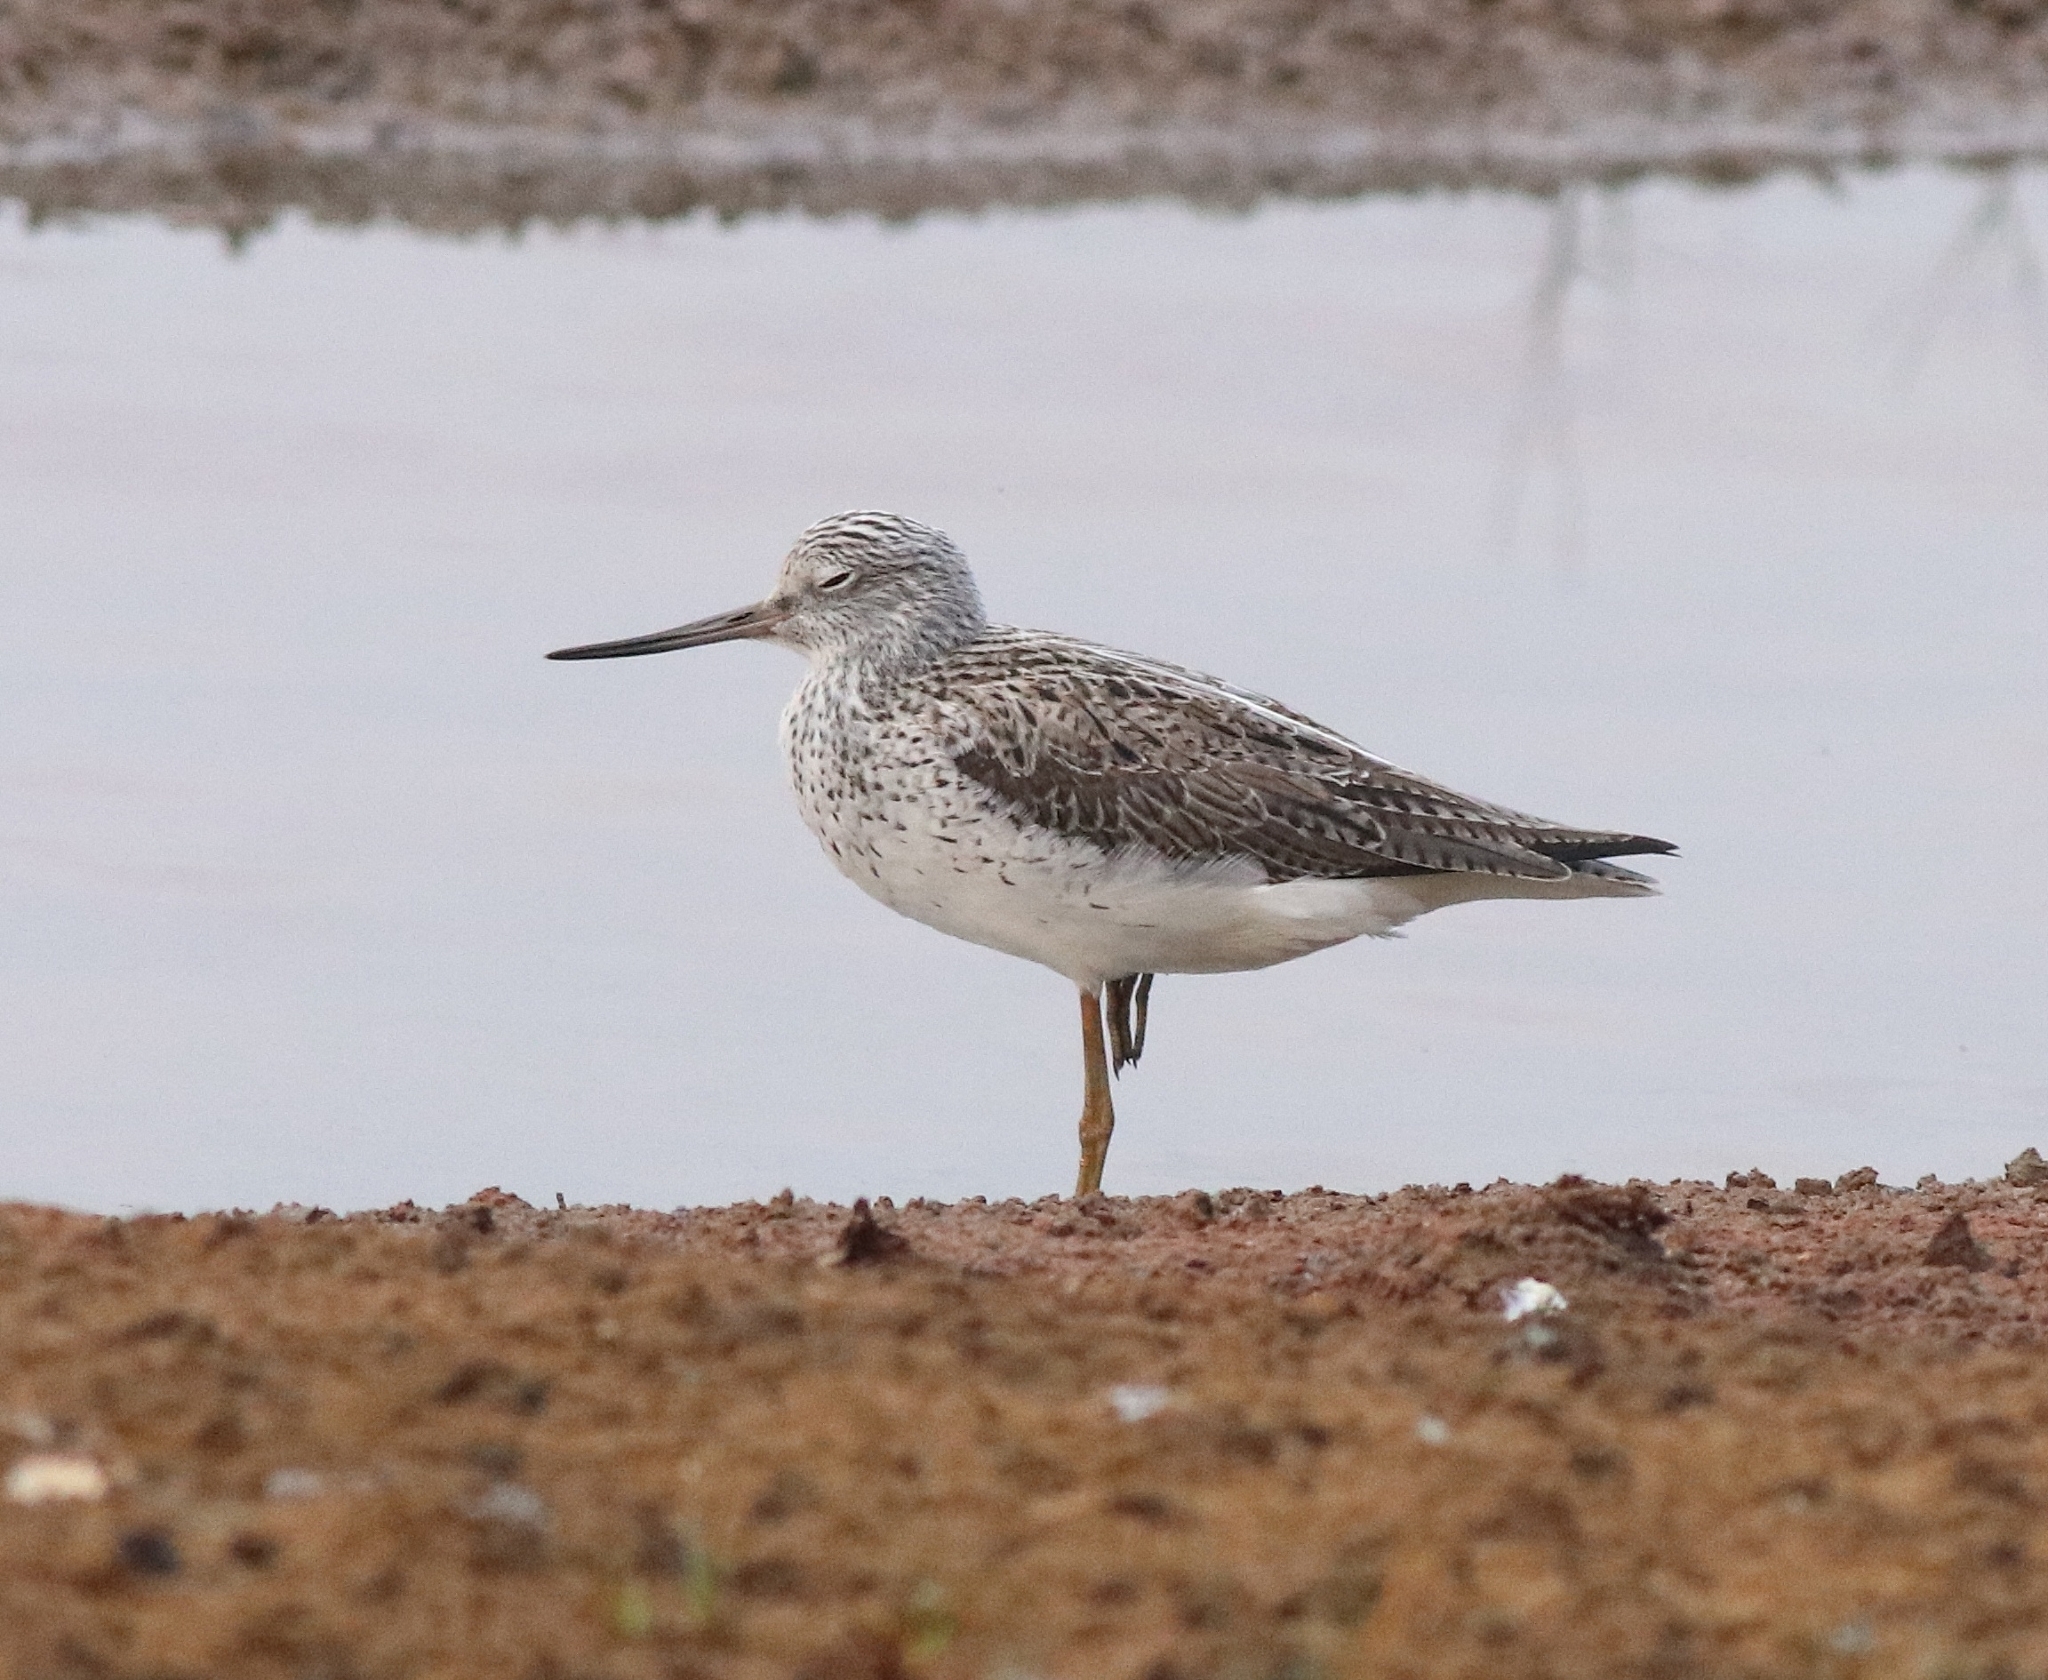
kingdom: Animalia
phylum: Chordata
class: Aves
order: Charadriiformes
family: Scolopacidae
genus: Tringa
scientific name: Tringa nebularia
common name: Common greenshank
